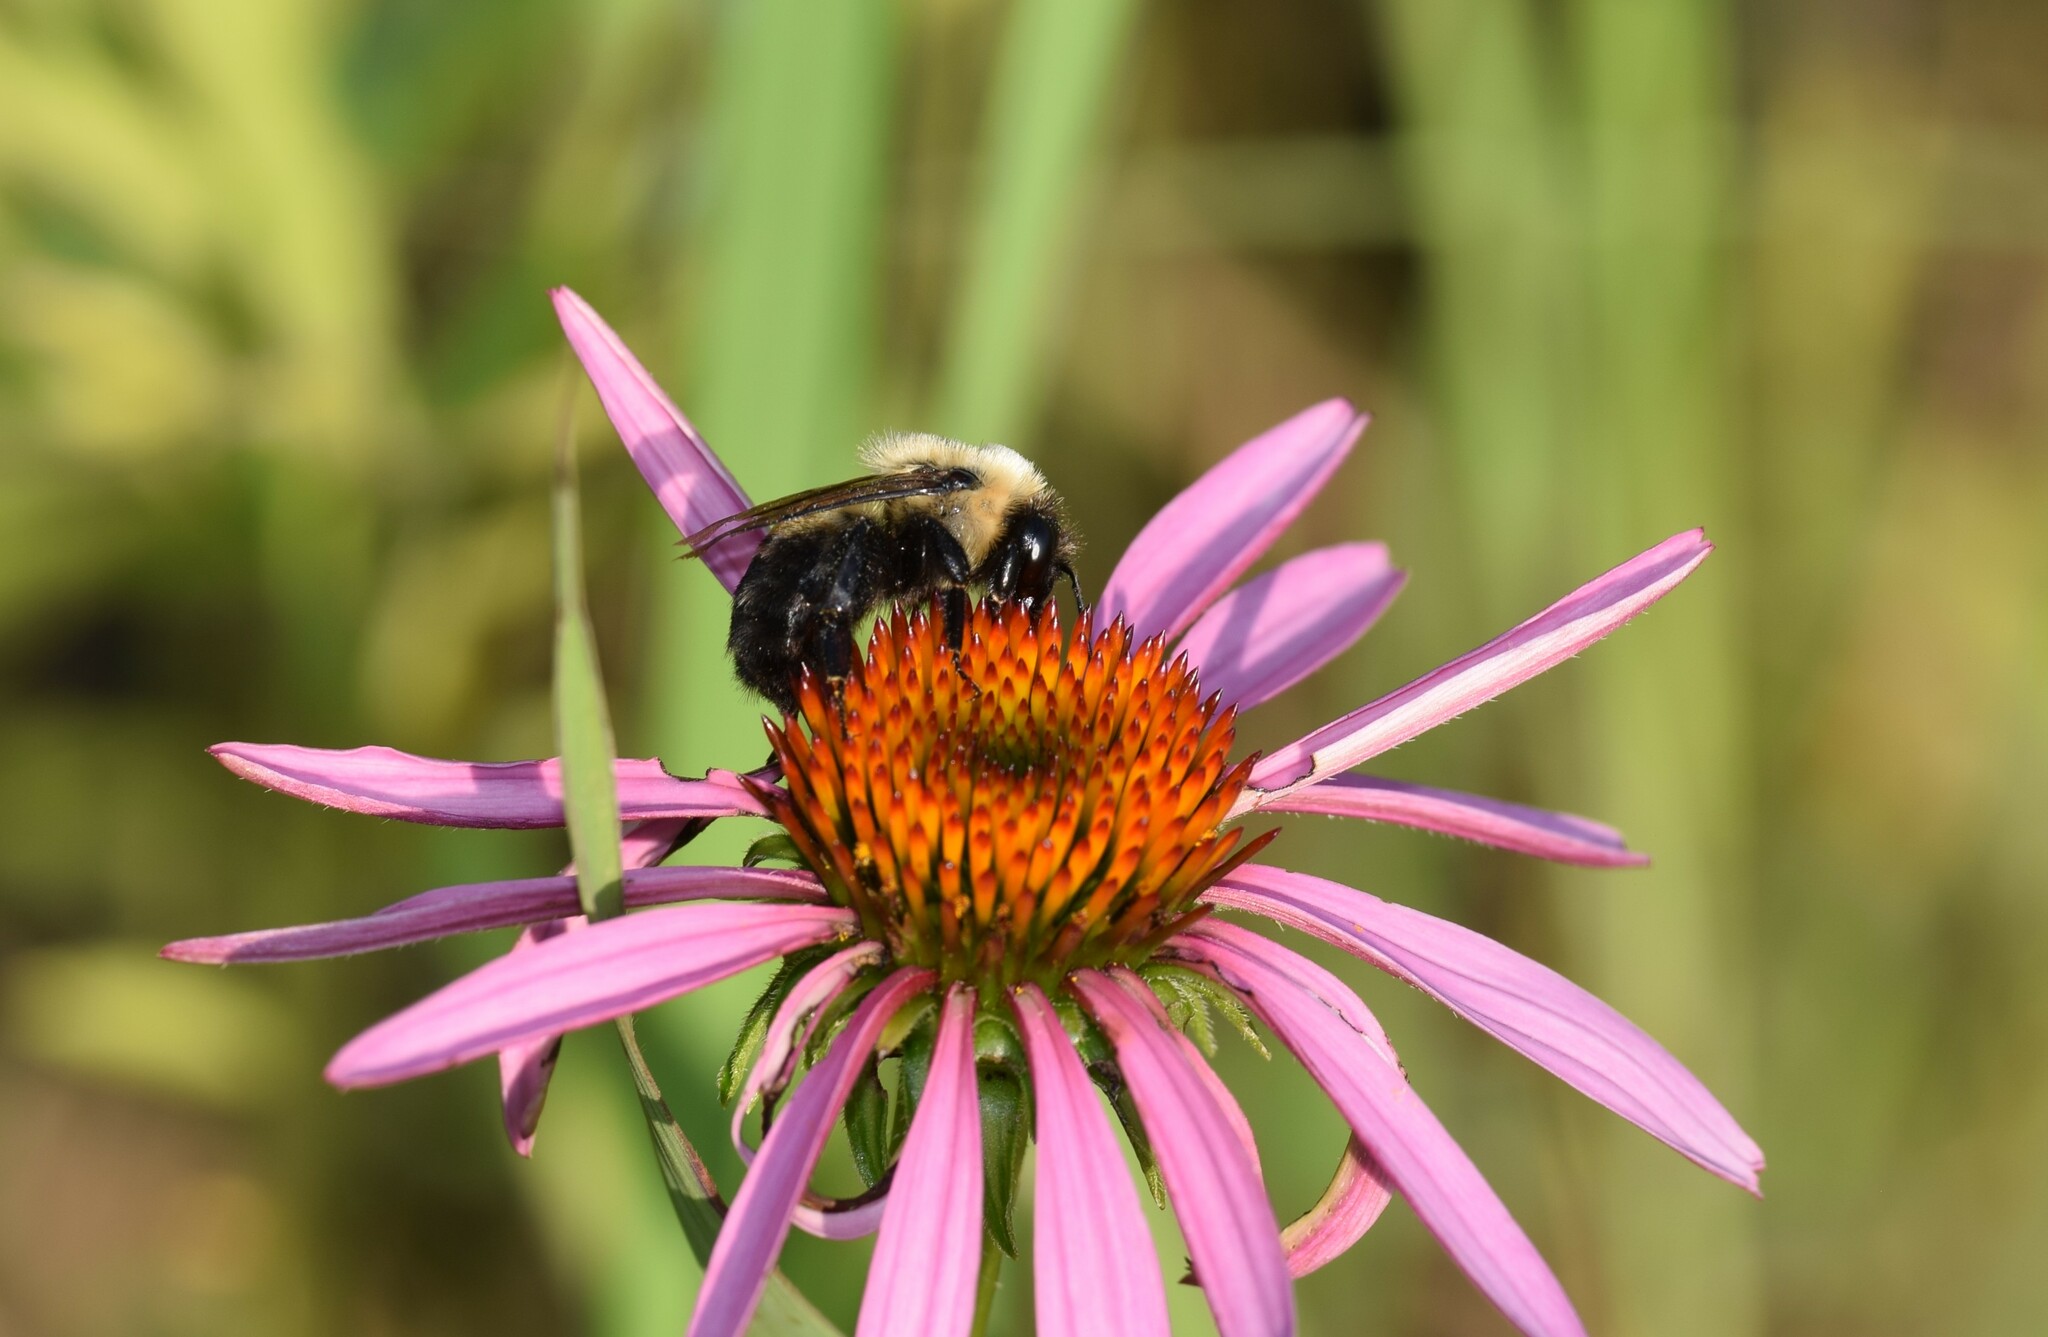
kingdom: Animalia
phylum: Arthropoda
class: Insecta
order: Hymenoptera
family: Apidae
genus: Bombus
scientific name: Bombus griseocollis
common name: Brown-belted bumble bee
